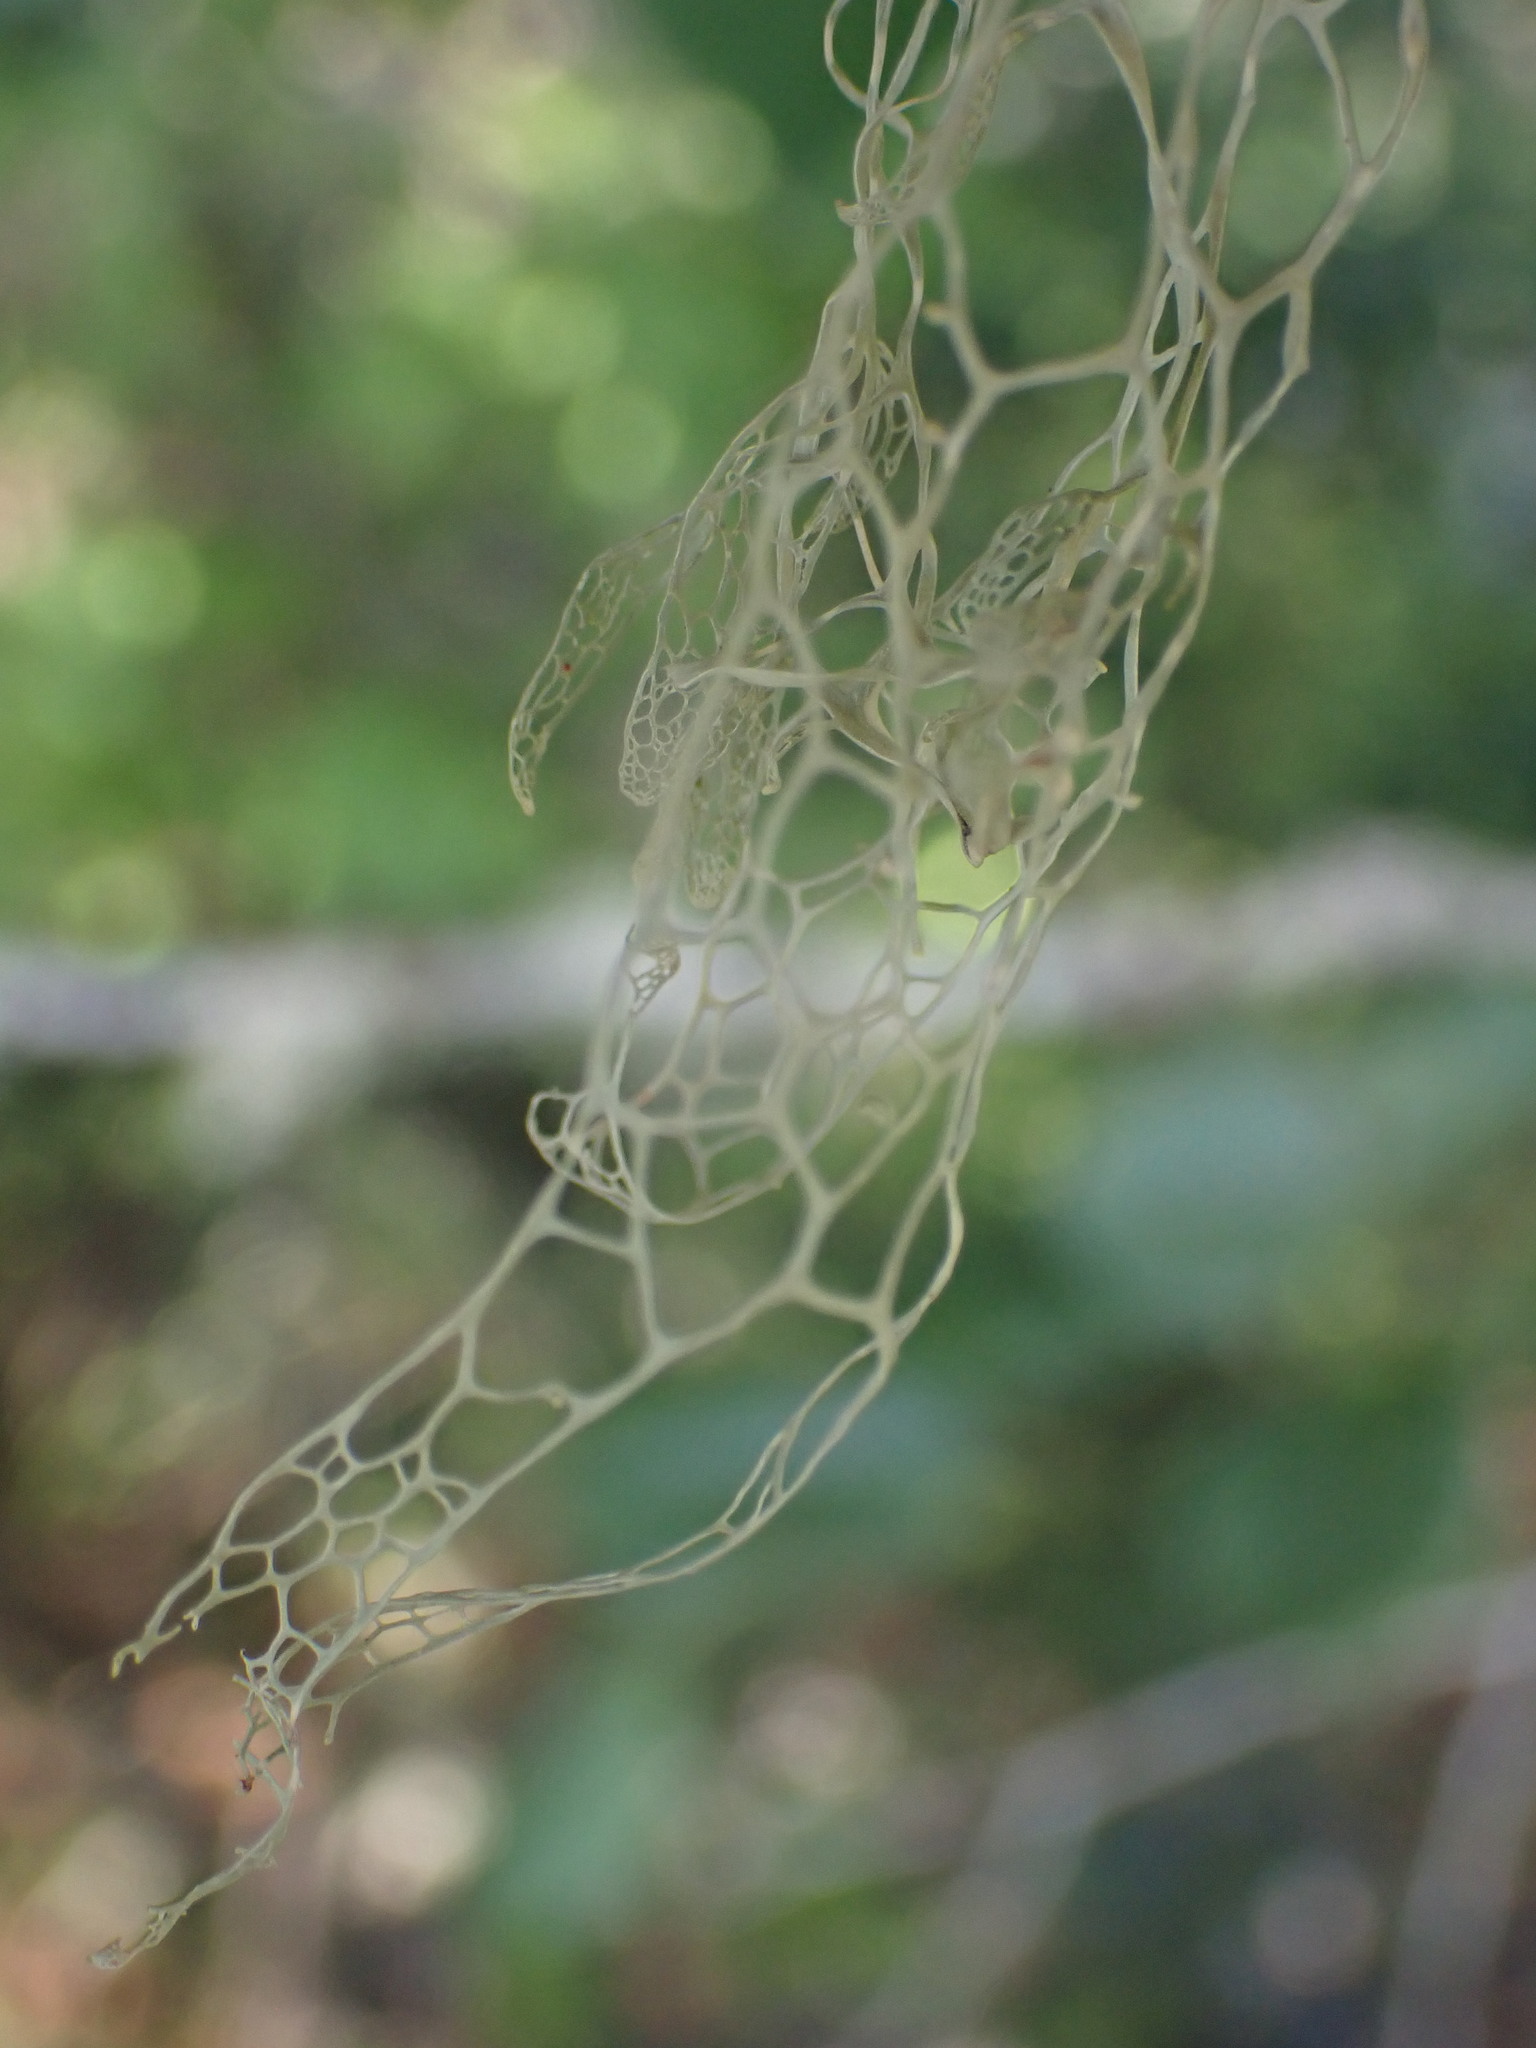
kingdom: Fungi
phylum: Ascomycota
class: Lecanoromycetes
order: Lecanorales
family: Ramalinaceae
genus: Ramalina
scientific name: Ramalina menziesii
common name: Lace lichen
